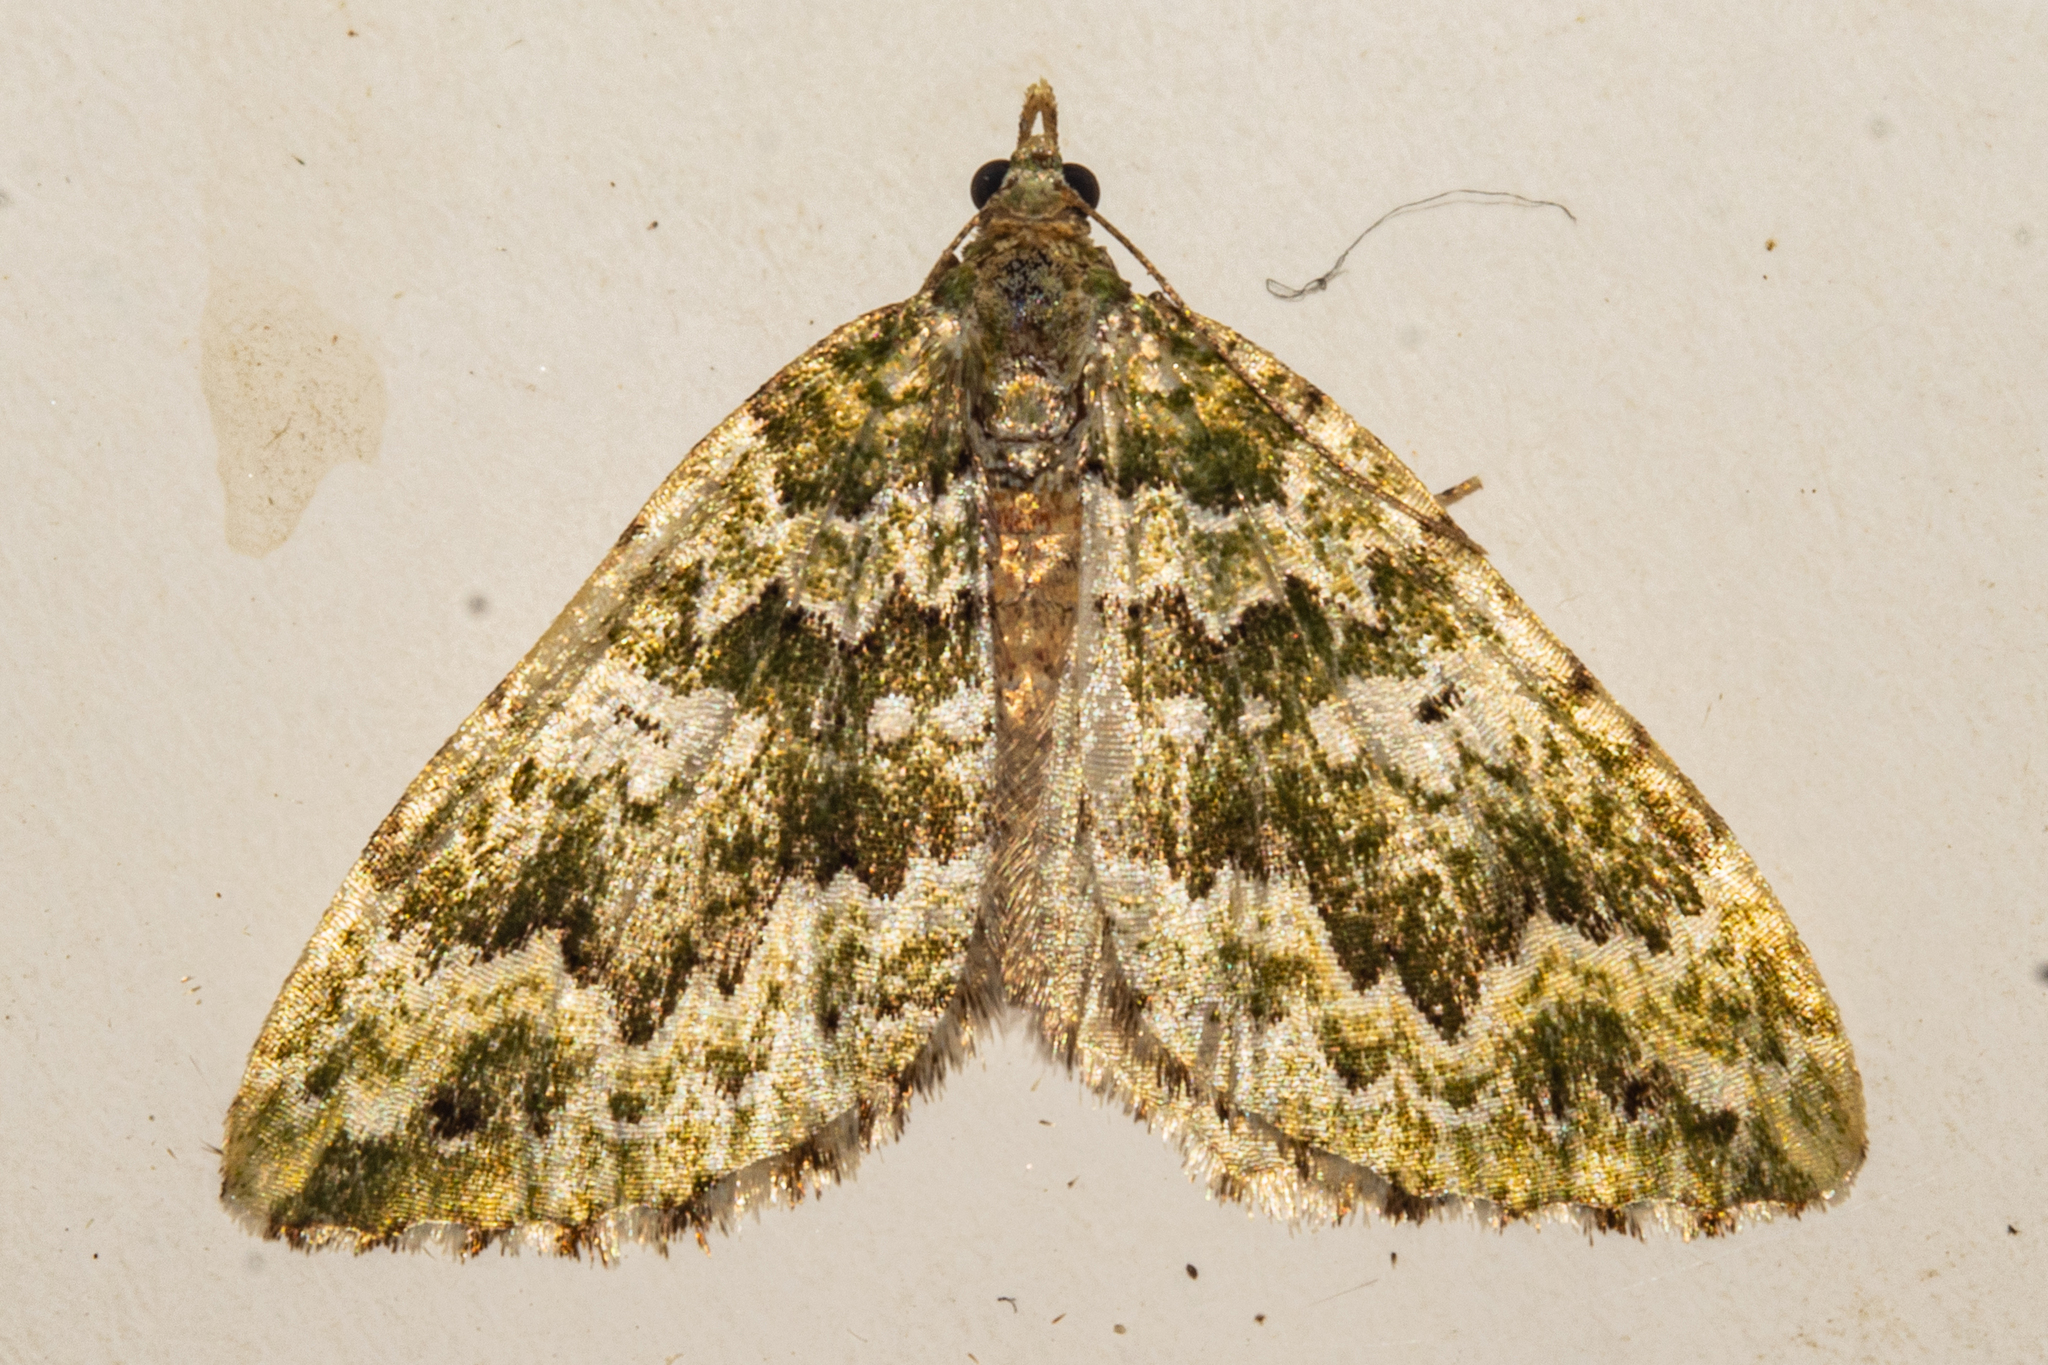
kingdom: Animalia
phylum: Arthropoda
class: Insecta
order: Lepidoptera
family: Geometridae
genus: Asaphodes
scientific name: Asaphodes beata
